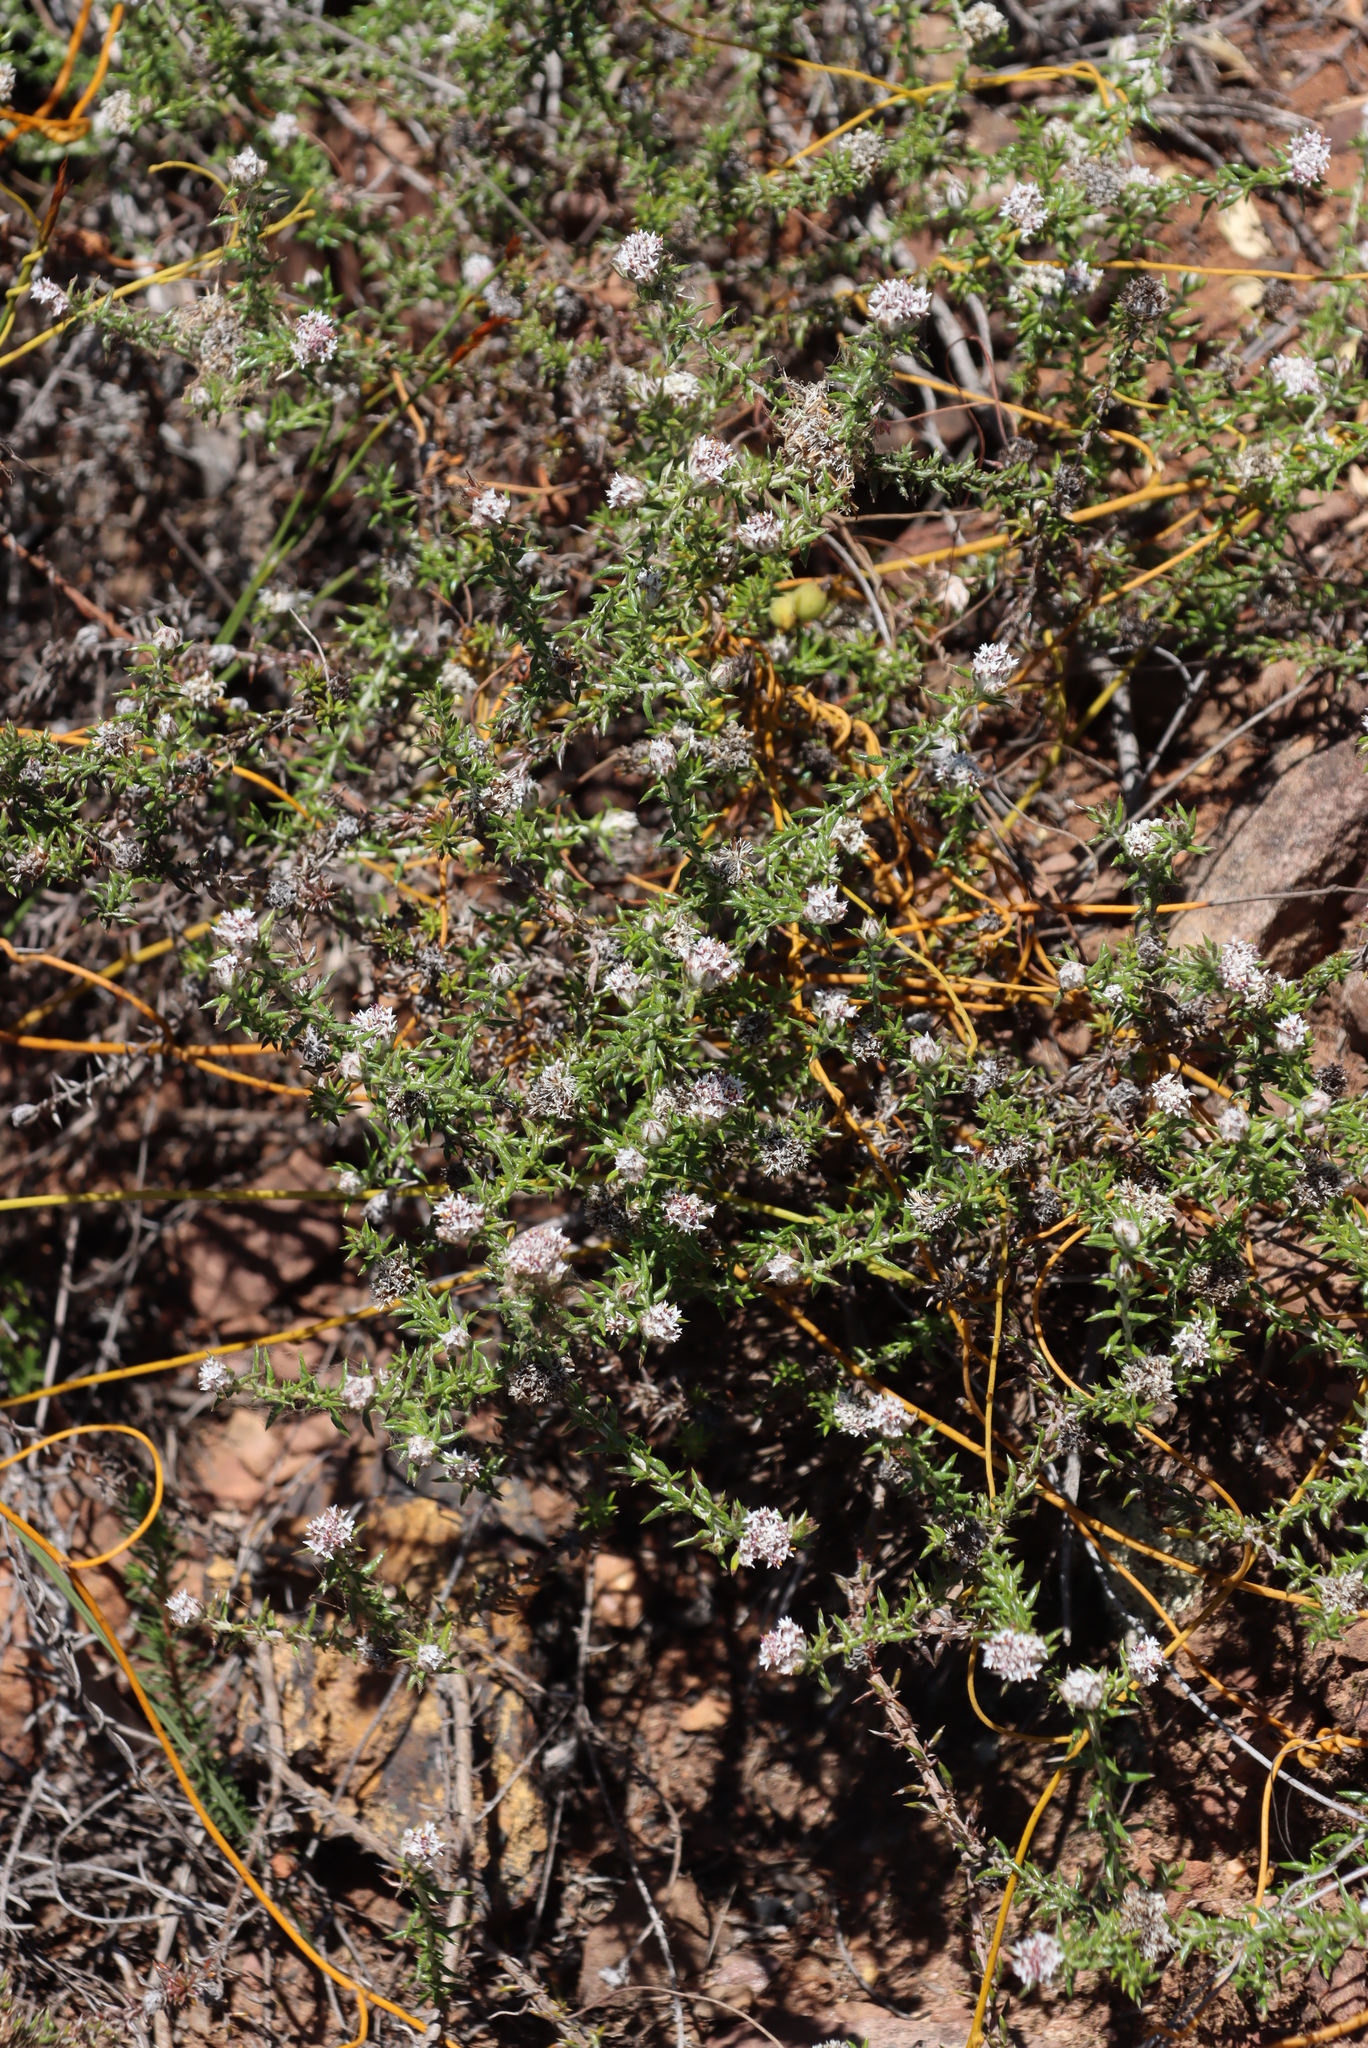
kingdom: Plantae
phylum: Tracheophyta
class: Magnoliopsida
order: Asterales
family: Asteraceae
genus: Metalasia
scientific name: Metalasia divergens
